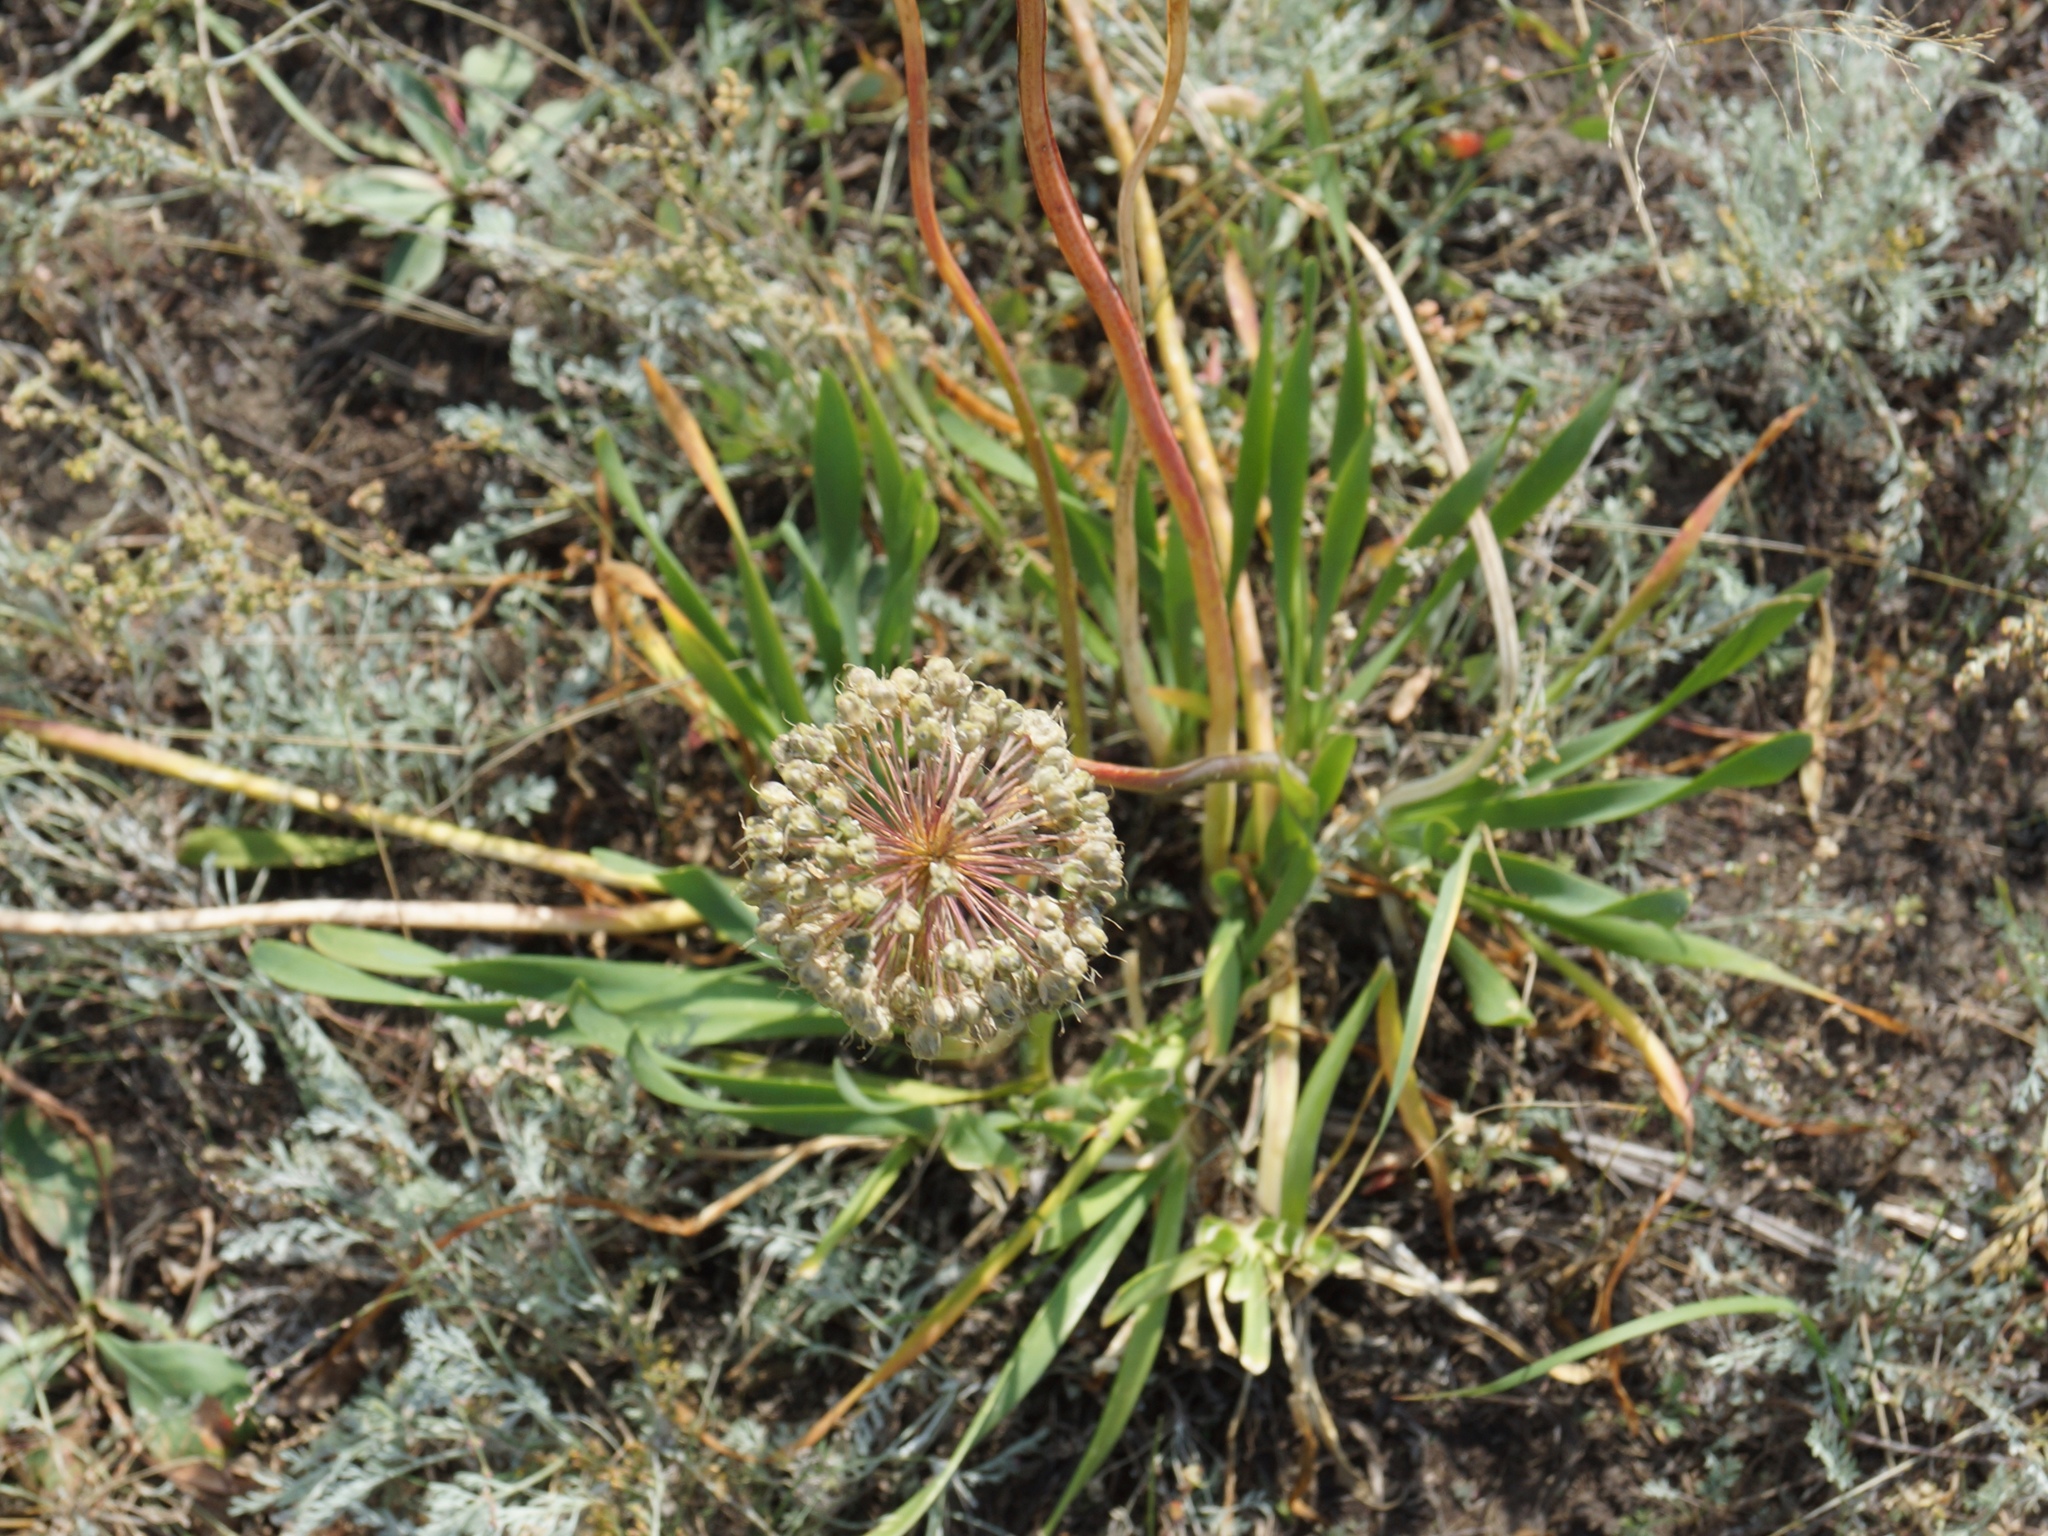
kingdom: Plantae
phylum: Tracheophyta
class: Liliopsida
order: Asparagales
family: Amaryllidaceae
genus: Allium
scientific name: Allium nutans
